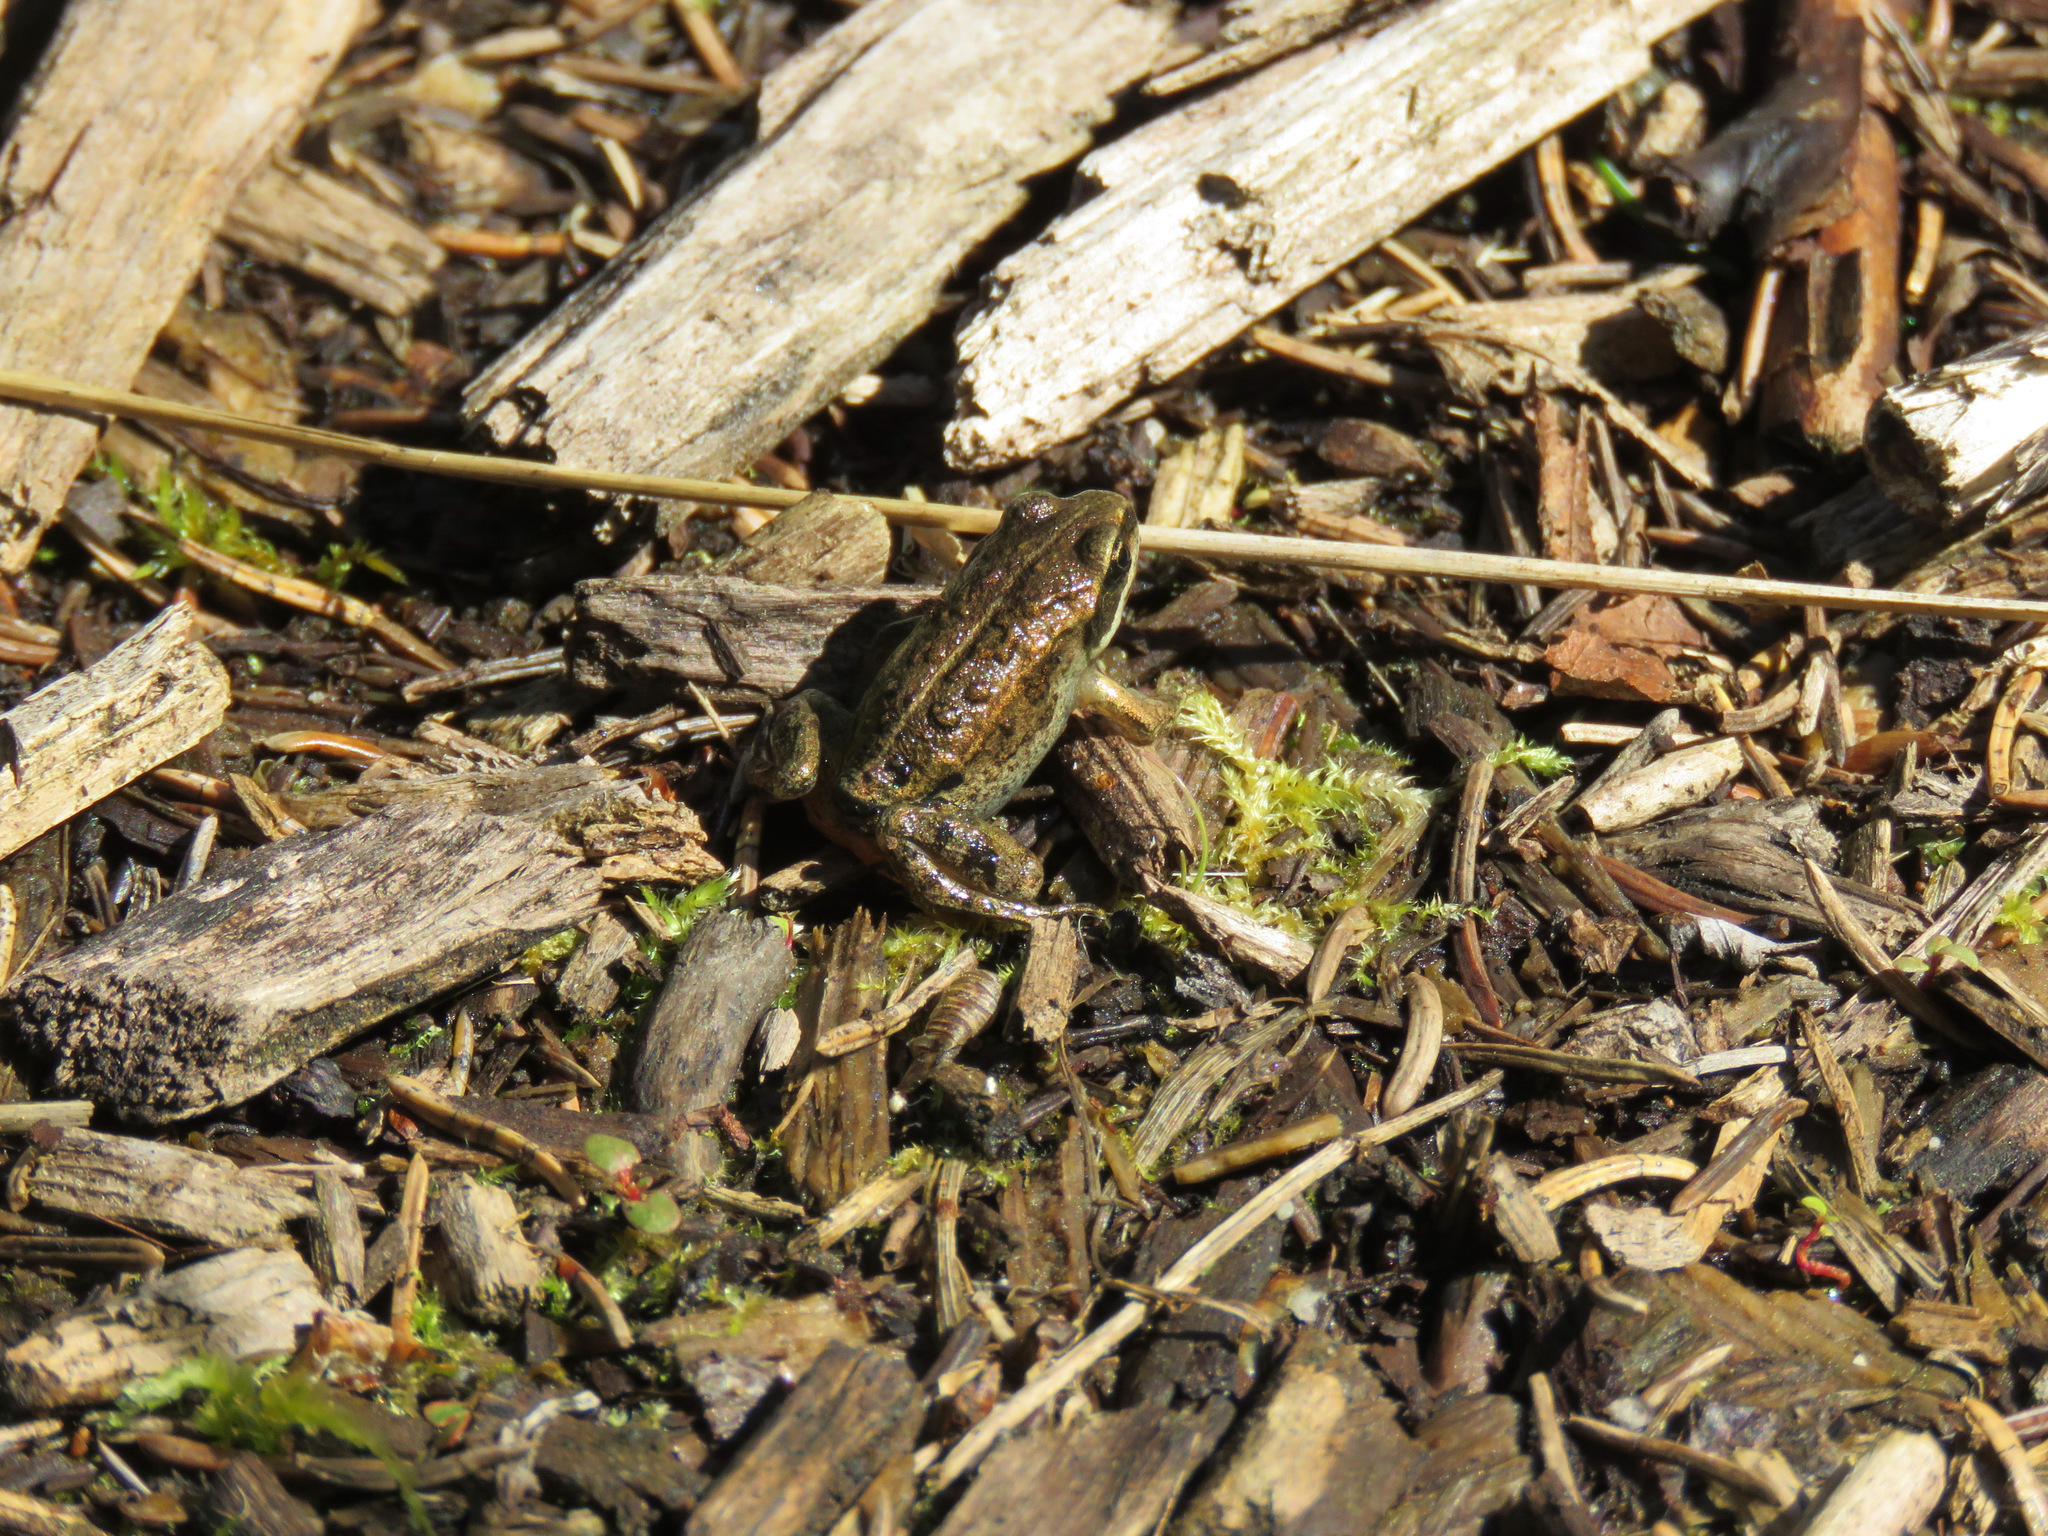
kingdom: Animalia
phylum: Chordata
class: Amphibia
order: Anura
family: Ranidae
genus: Lithobates
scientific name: Lithobates sylvaticus
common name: Wood frog
